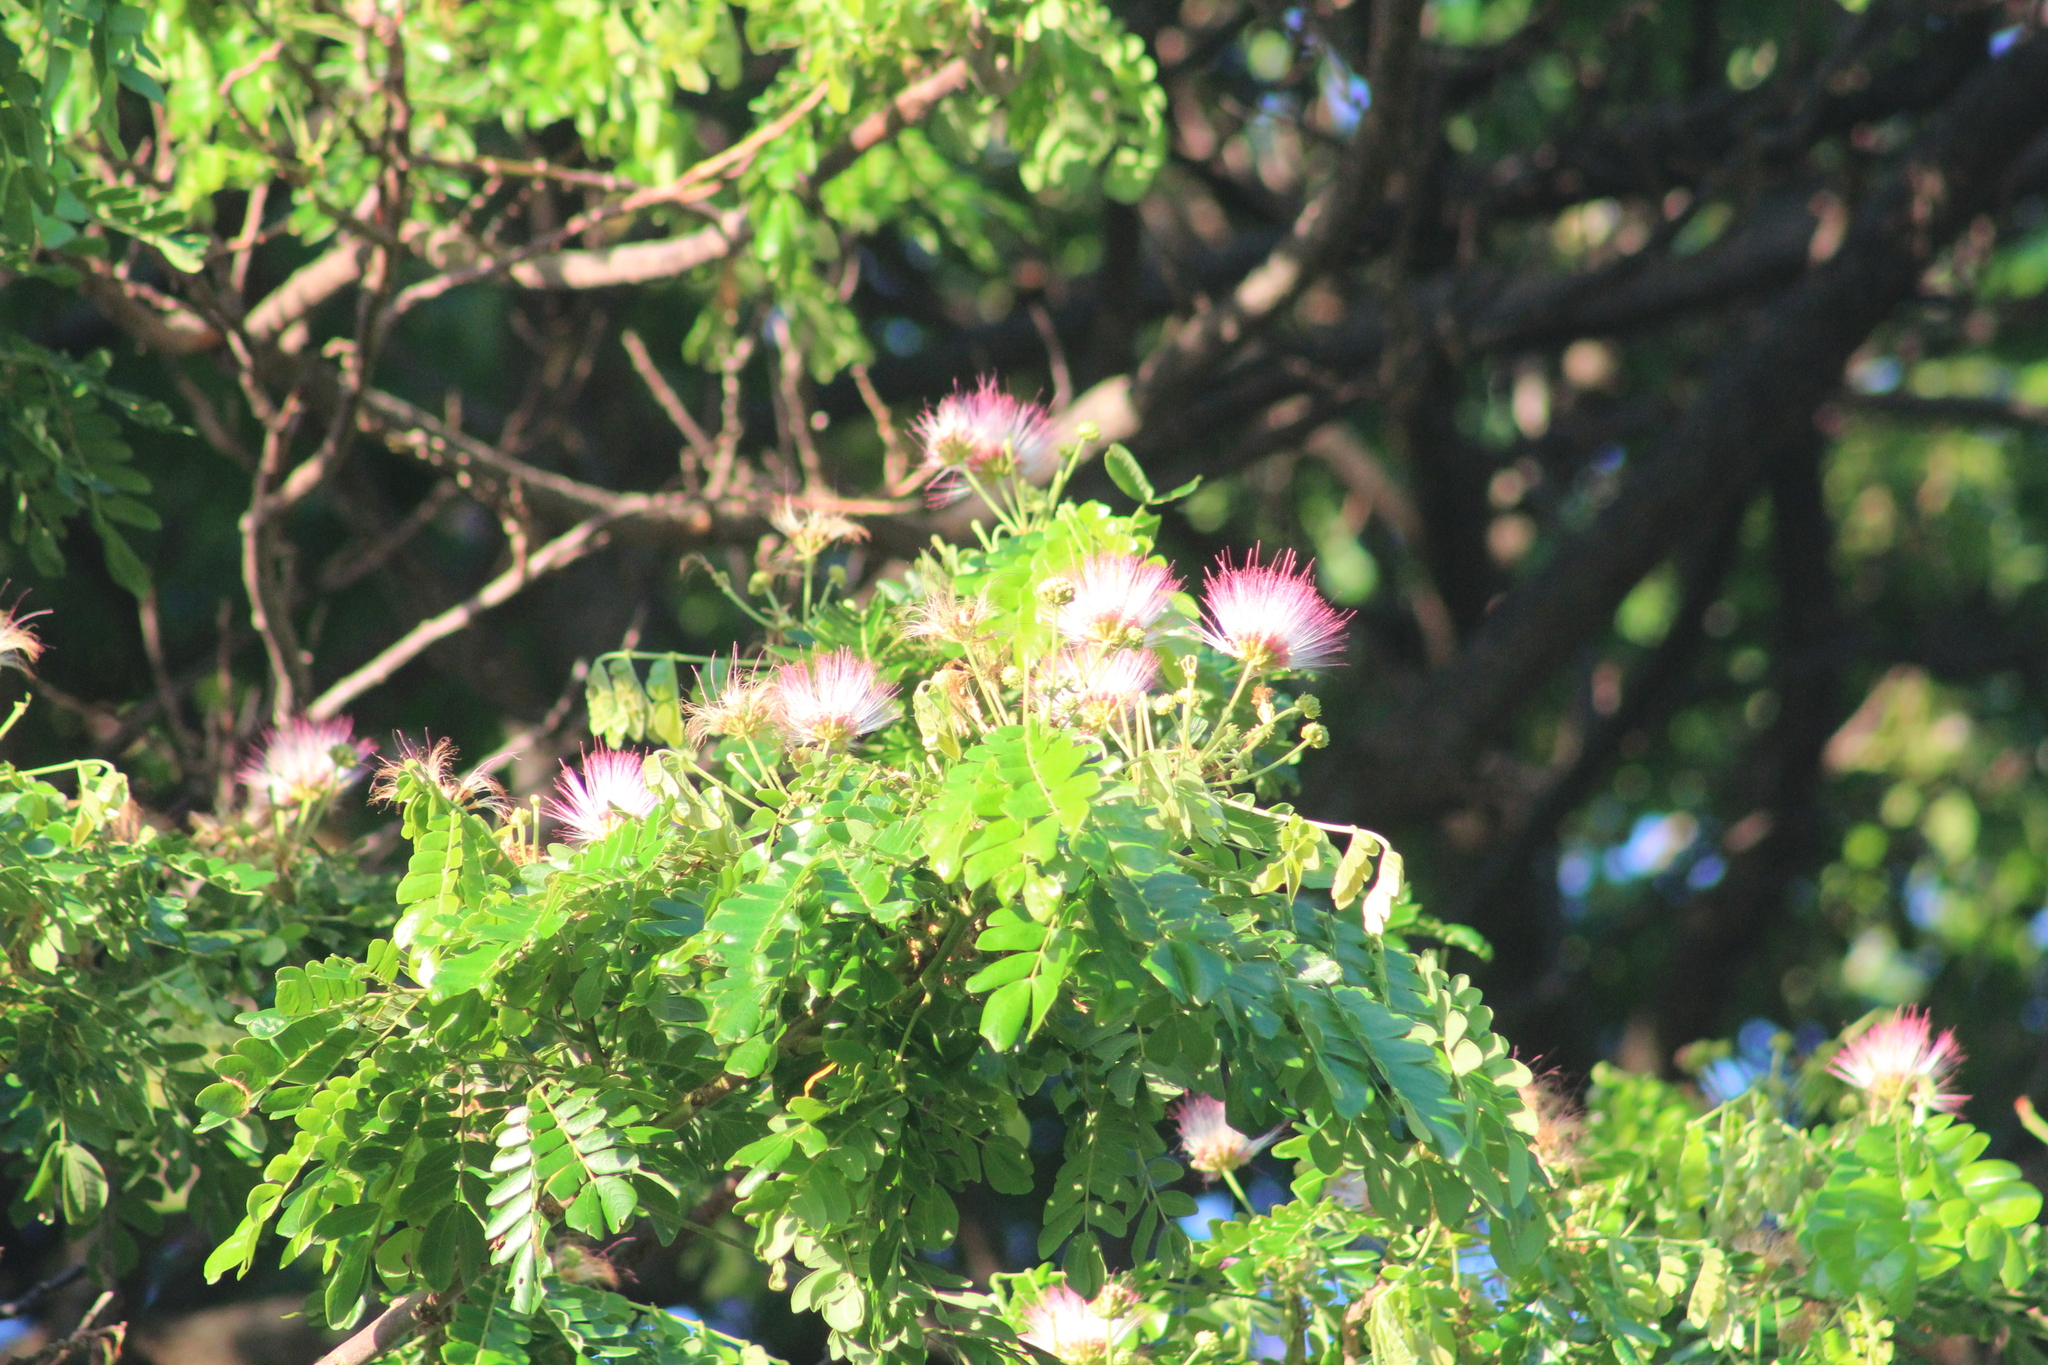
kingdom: Plantae
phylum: Tracheophyta
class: Magnoliopsida
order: Fabales
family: Fabaceae
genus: Samanea
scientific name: Samanea saman
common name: Raintree
